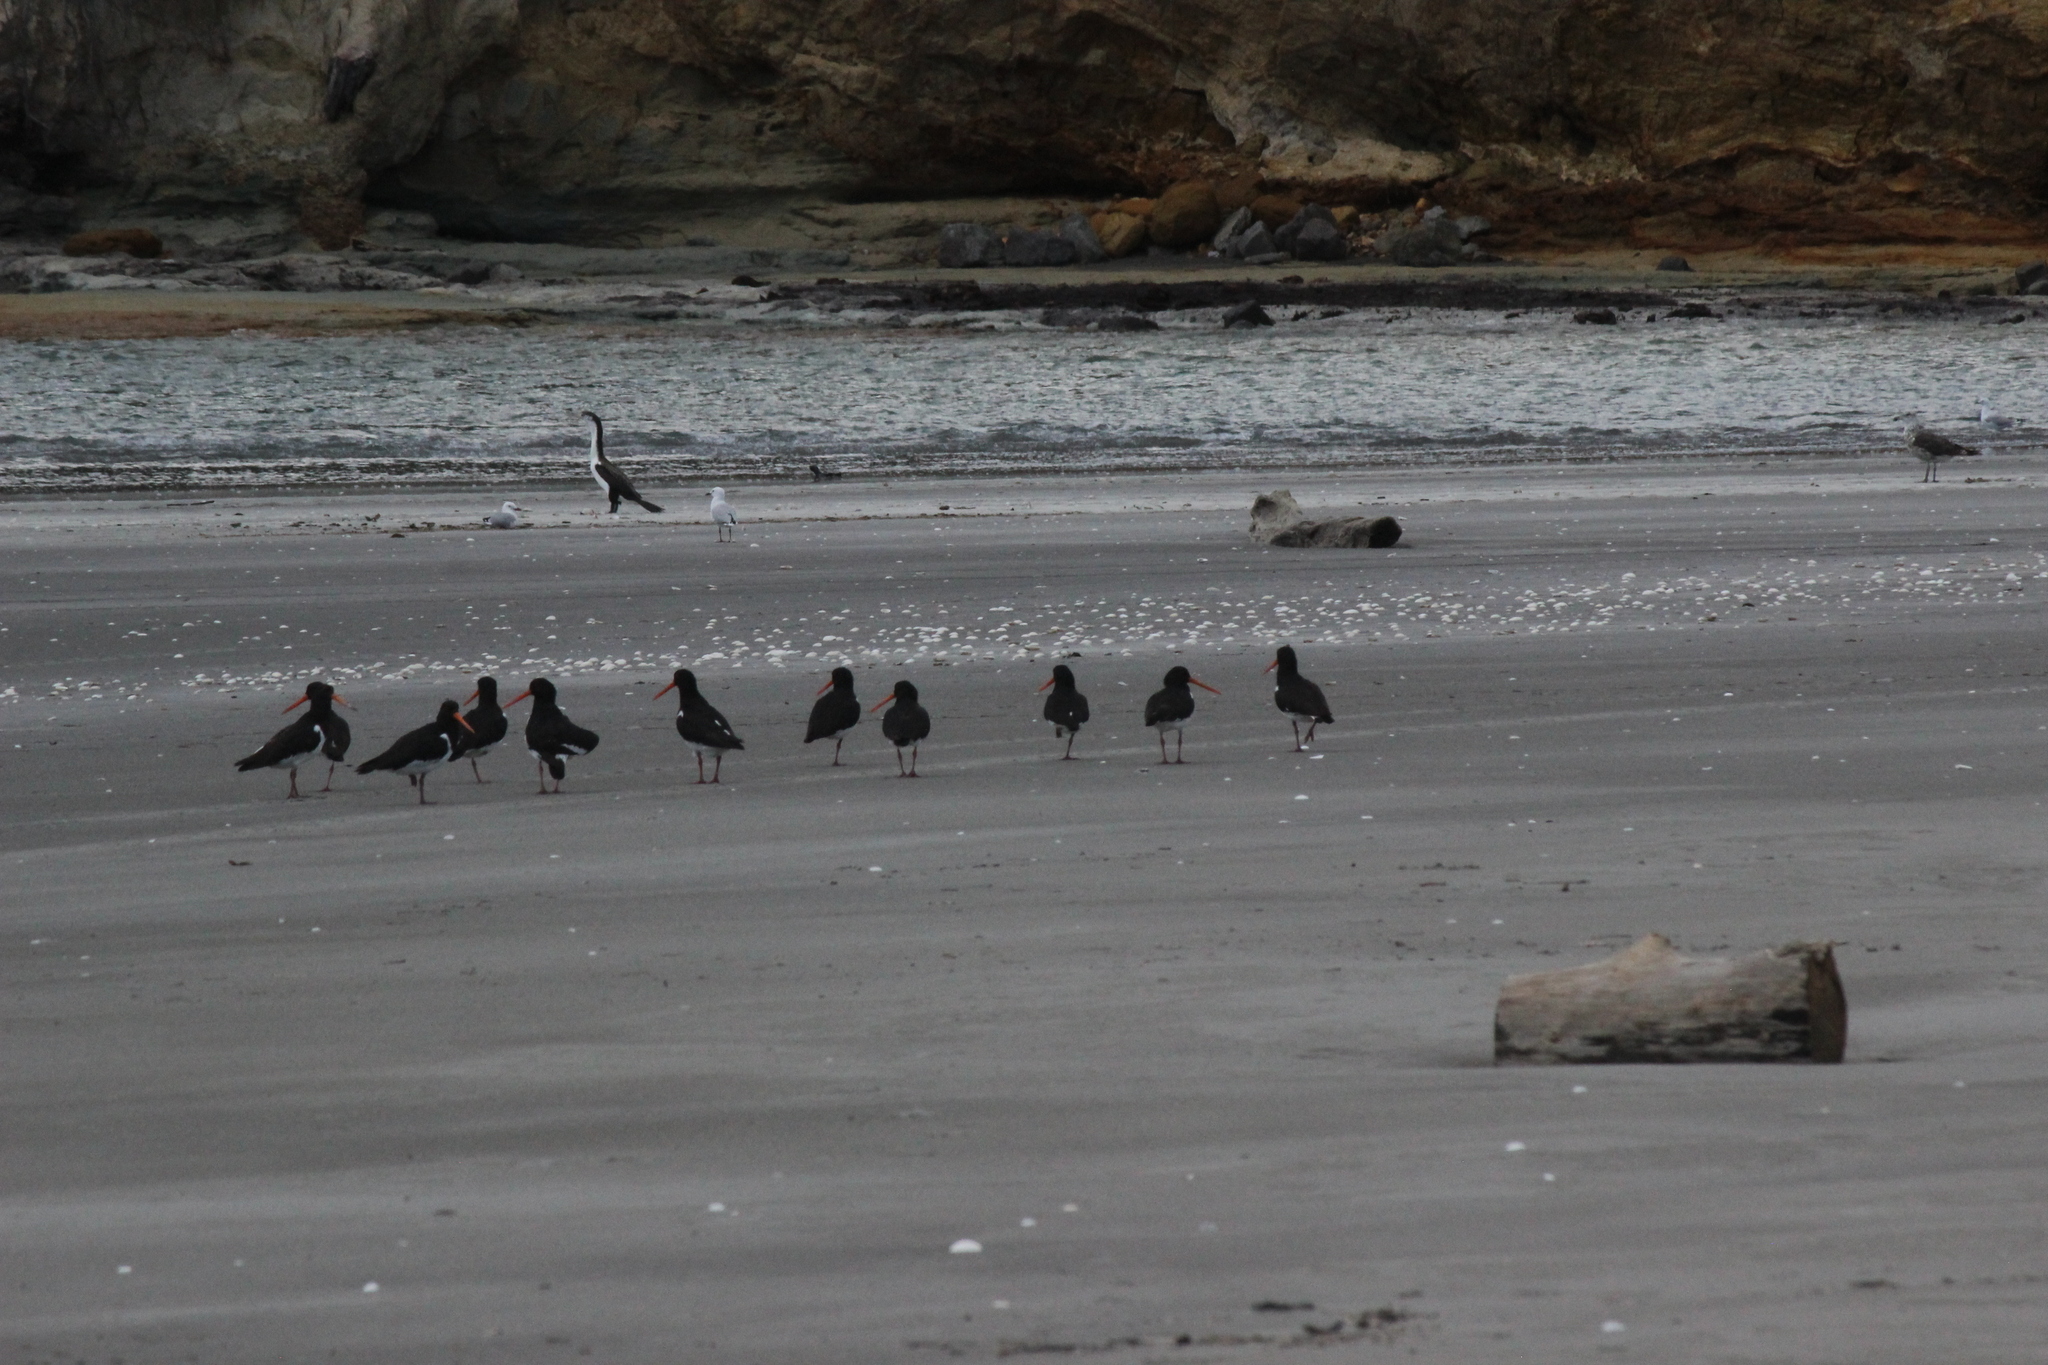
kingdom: Animalia
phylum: Chordata
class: Aves
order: Charadriiformes
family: Haematopodidae
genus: Haematopus
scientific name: Haematopus finschi
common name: South island oystercatcher
